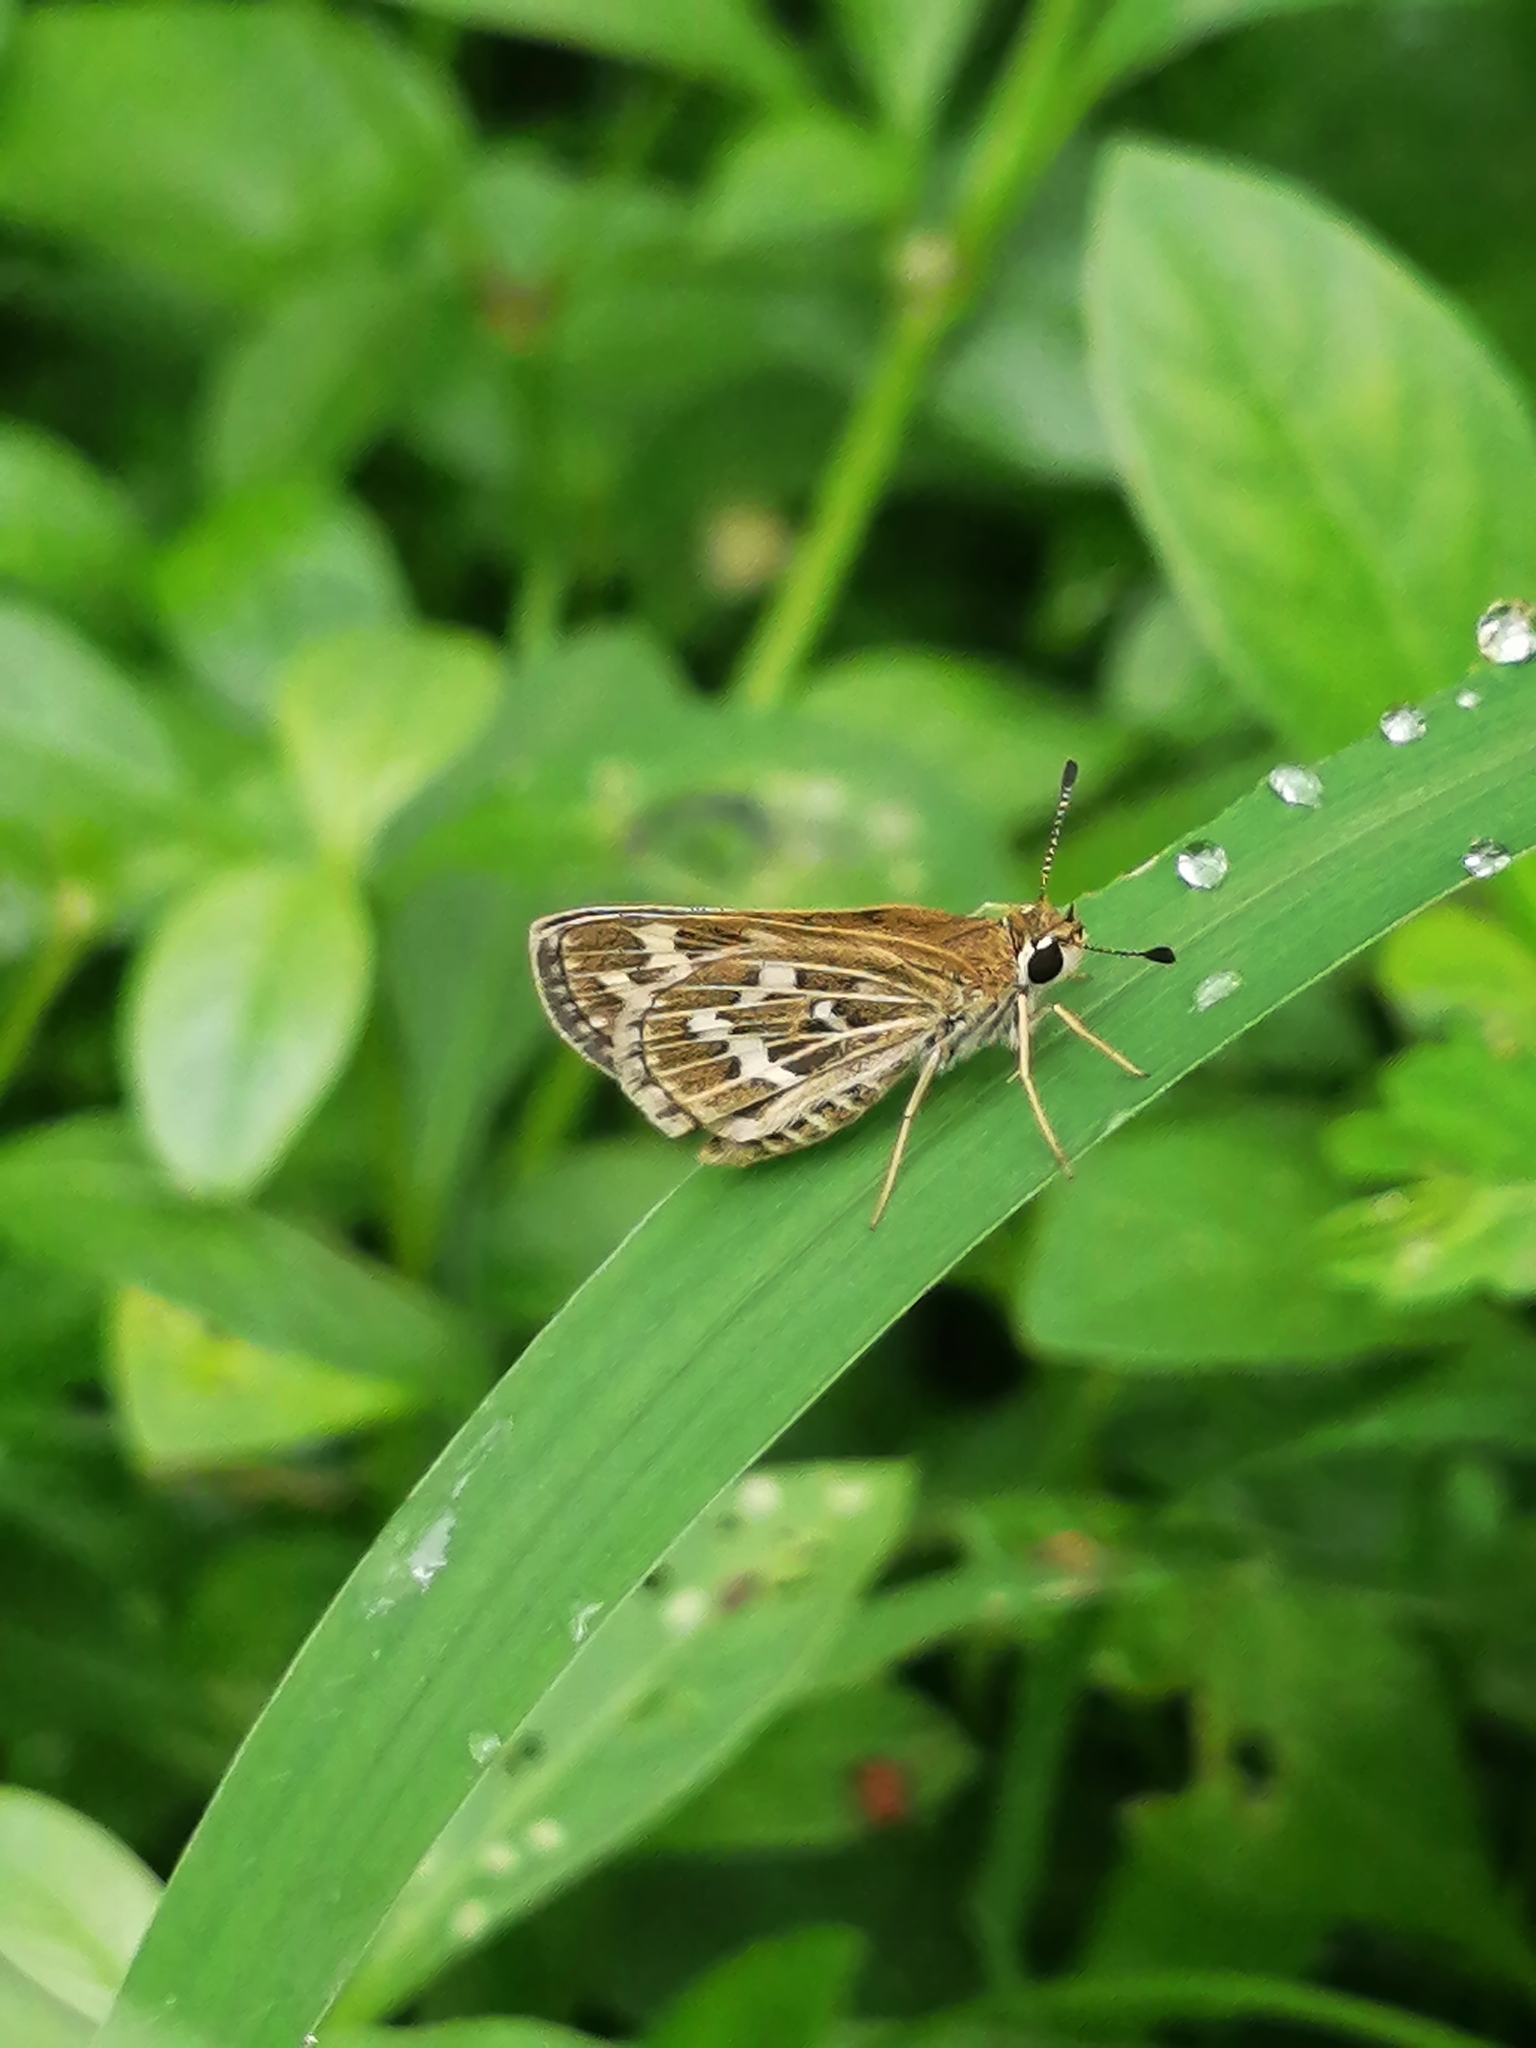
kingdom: Animalia
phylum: Arthropoda
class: Insecta
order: Lepidoptera
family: Hesperiidae
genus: Taractrocera
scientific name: Taractrocera maevius
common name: Common grass-dart
